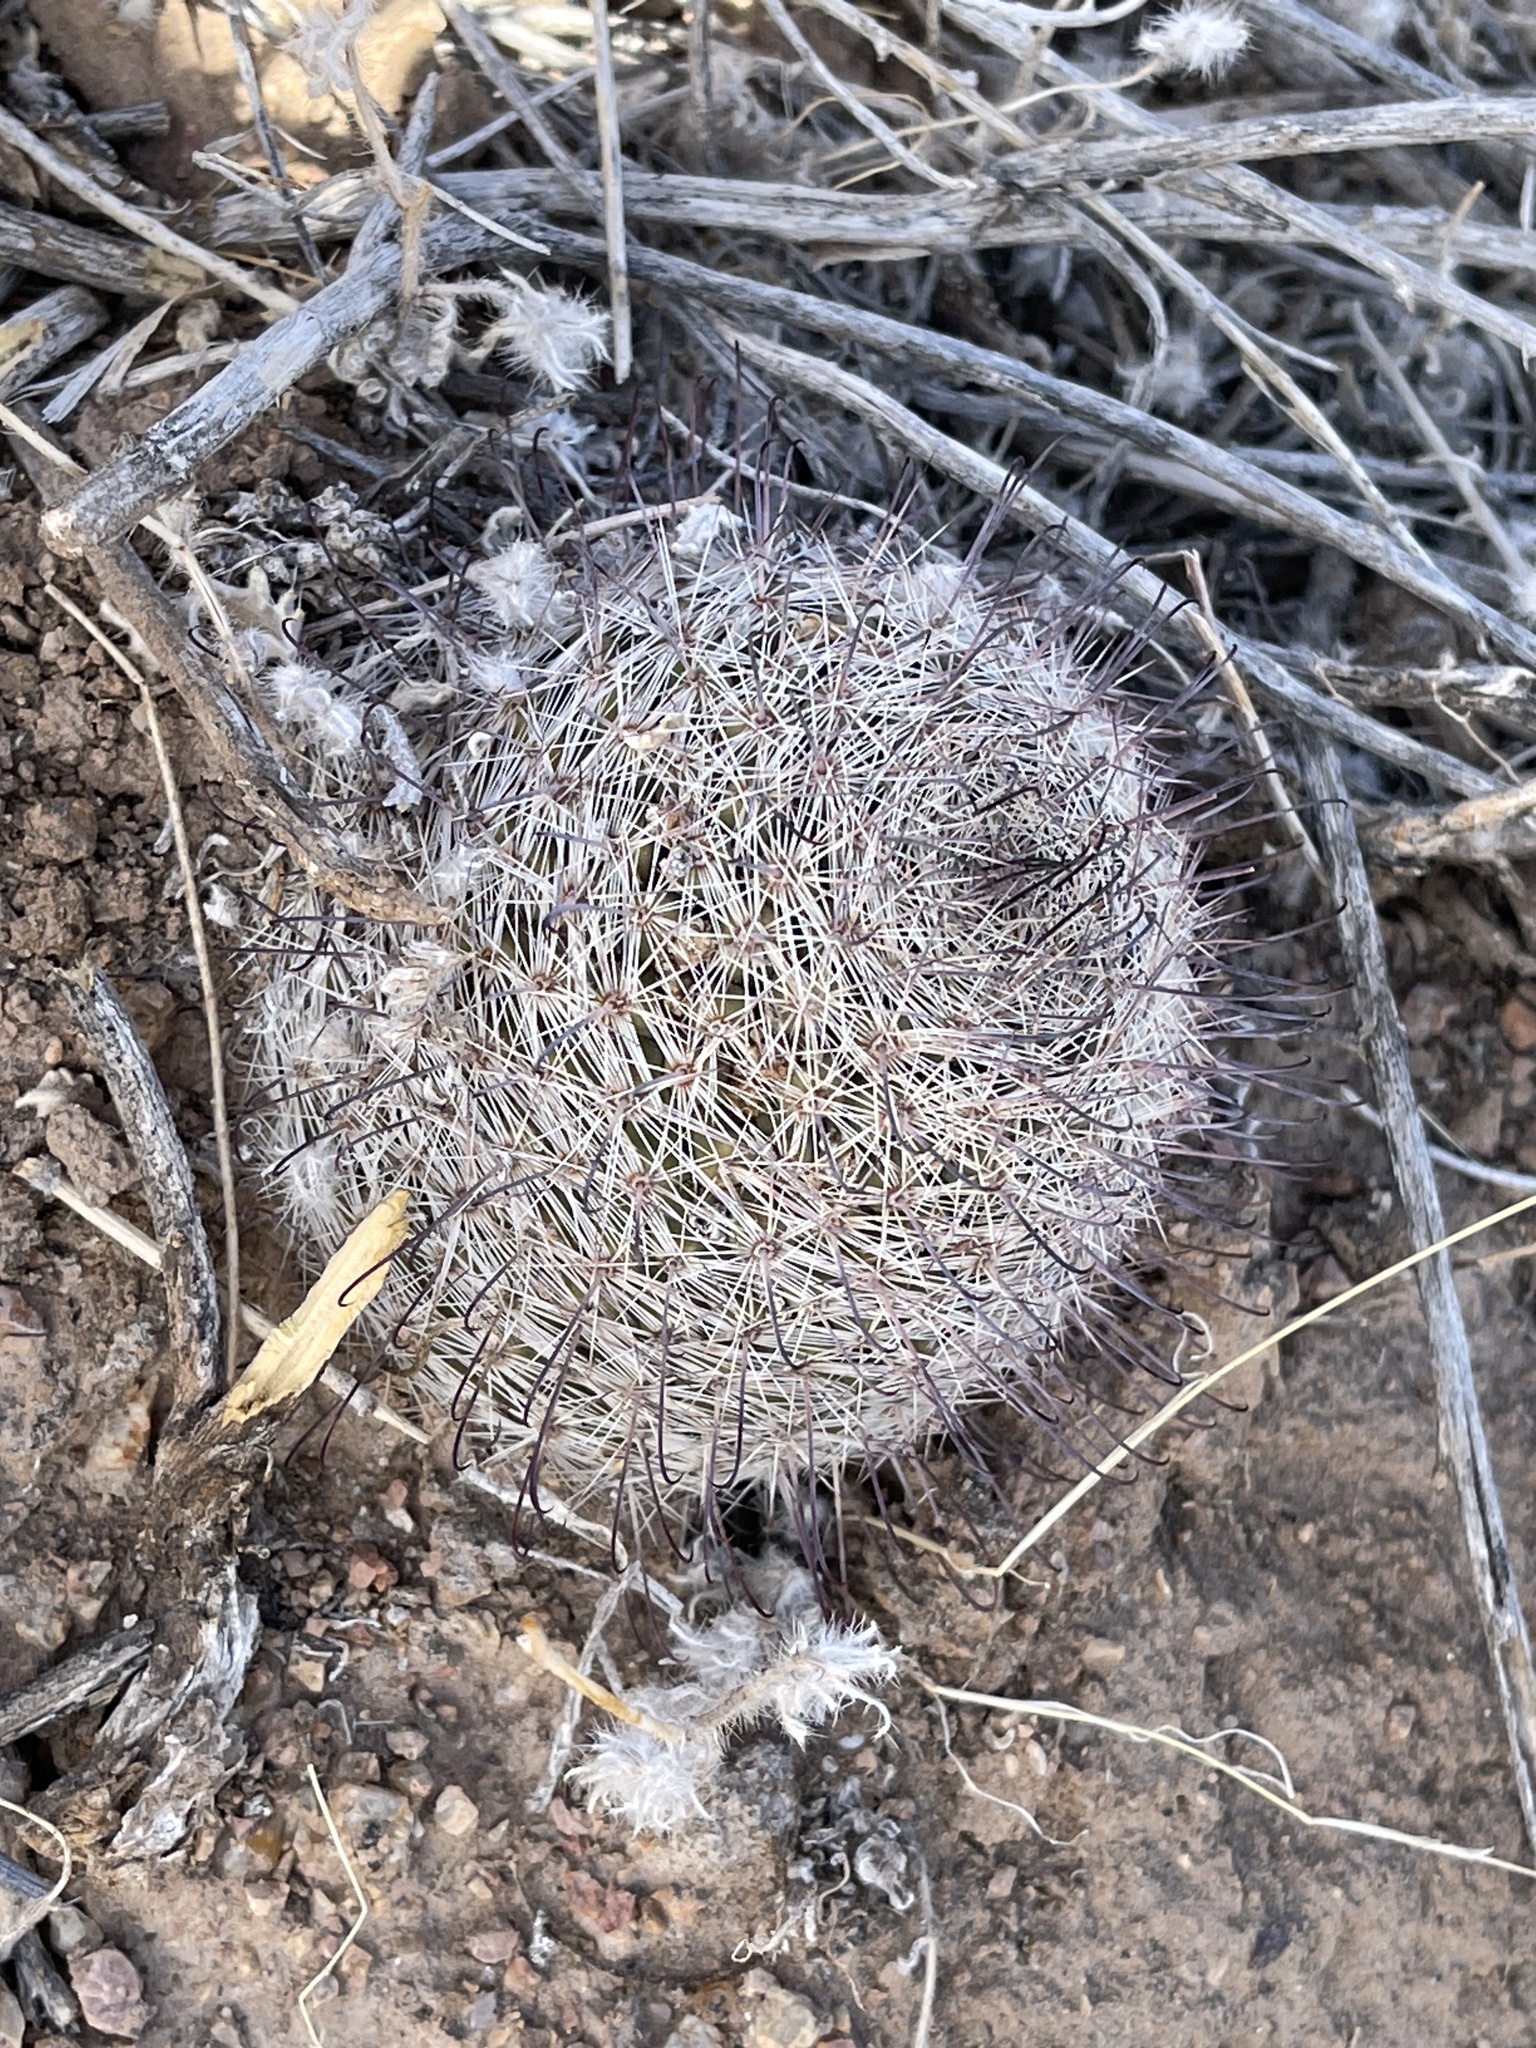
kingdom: Plantae
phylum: Tracheophyta
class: Magnoliopsida
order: Caryophyllales
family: Cactaceae
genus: Cochemiea
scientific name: Cochemiea grahamii
